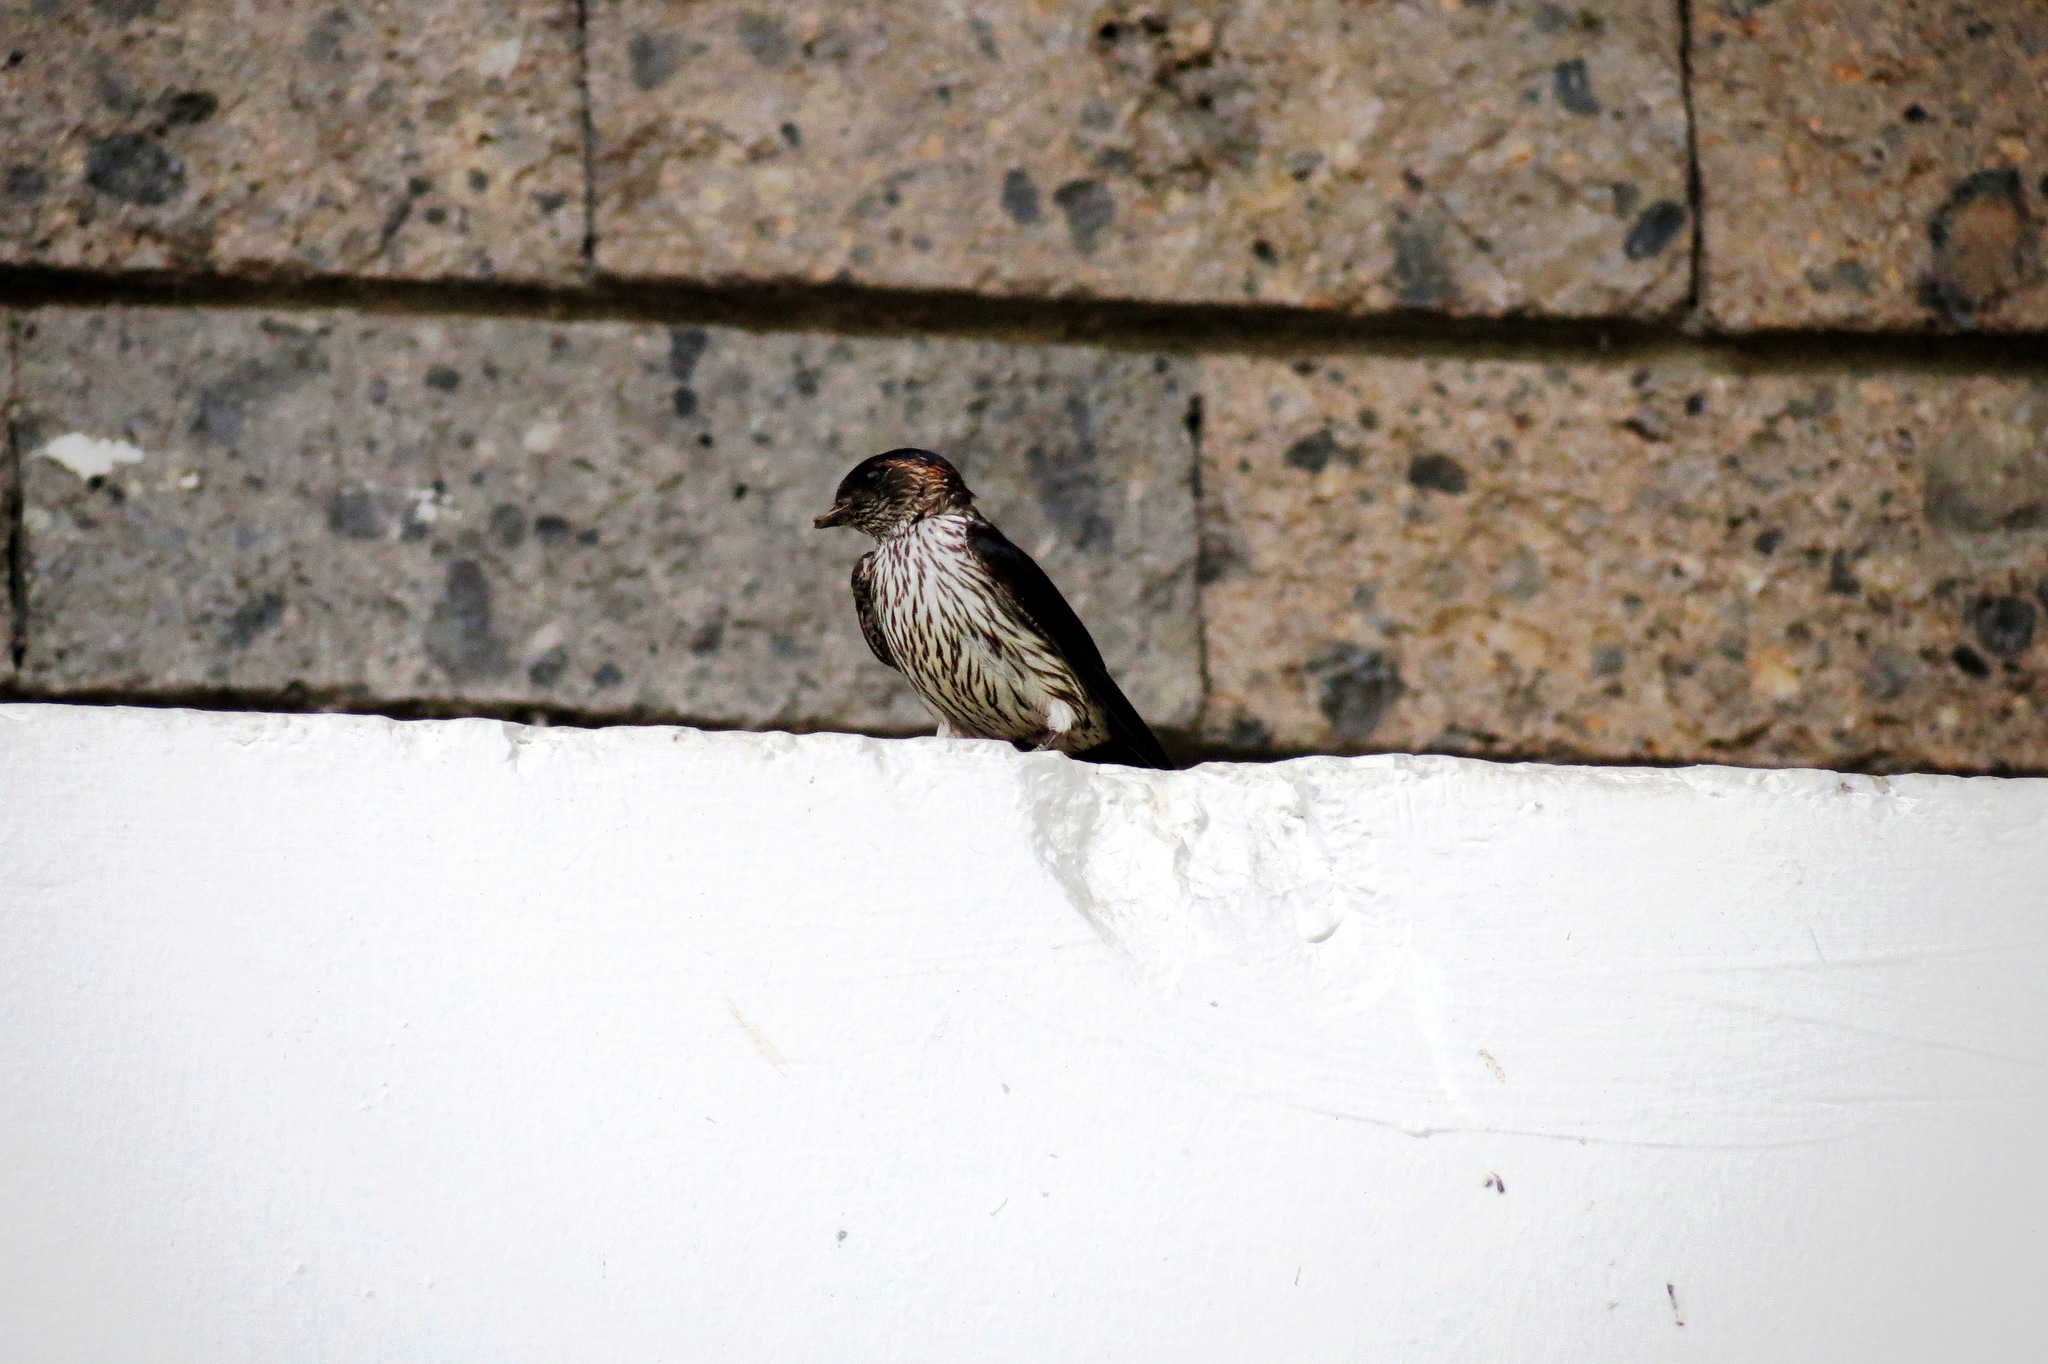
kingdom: Animalia
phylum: Chordata
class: Aves
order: Passeriformes
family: Hirundinidae
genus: Cecropis
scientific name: Cecropis striolata
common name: Striated swallow
